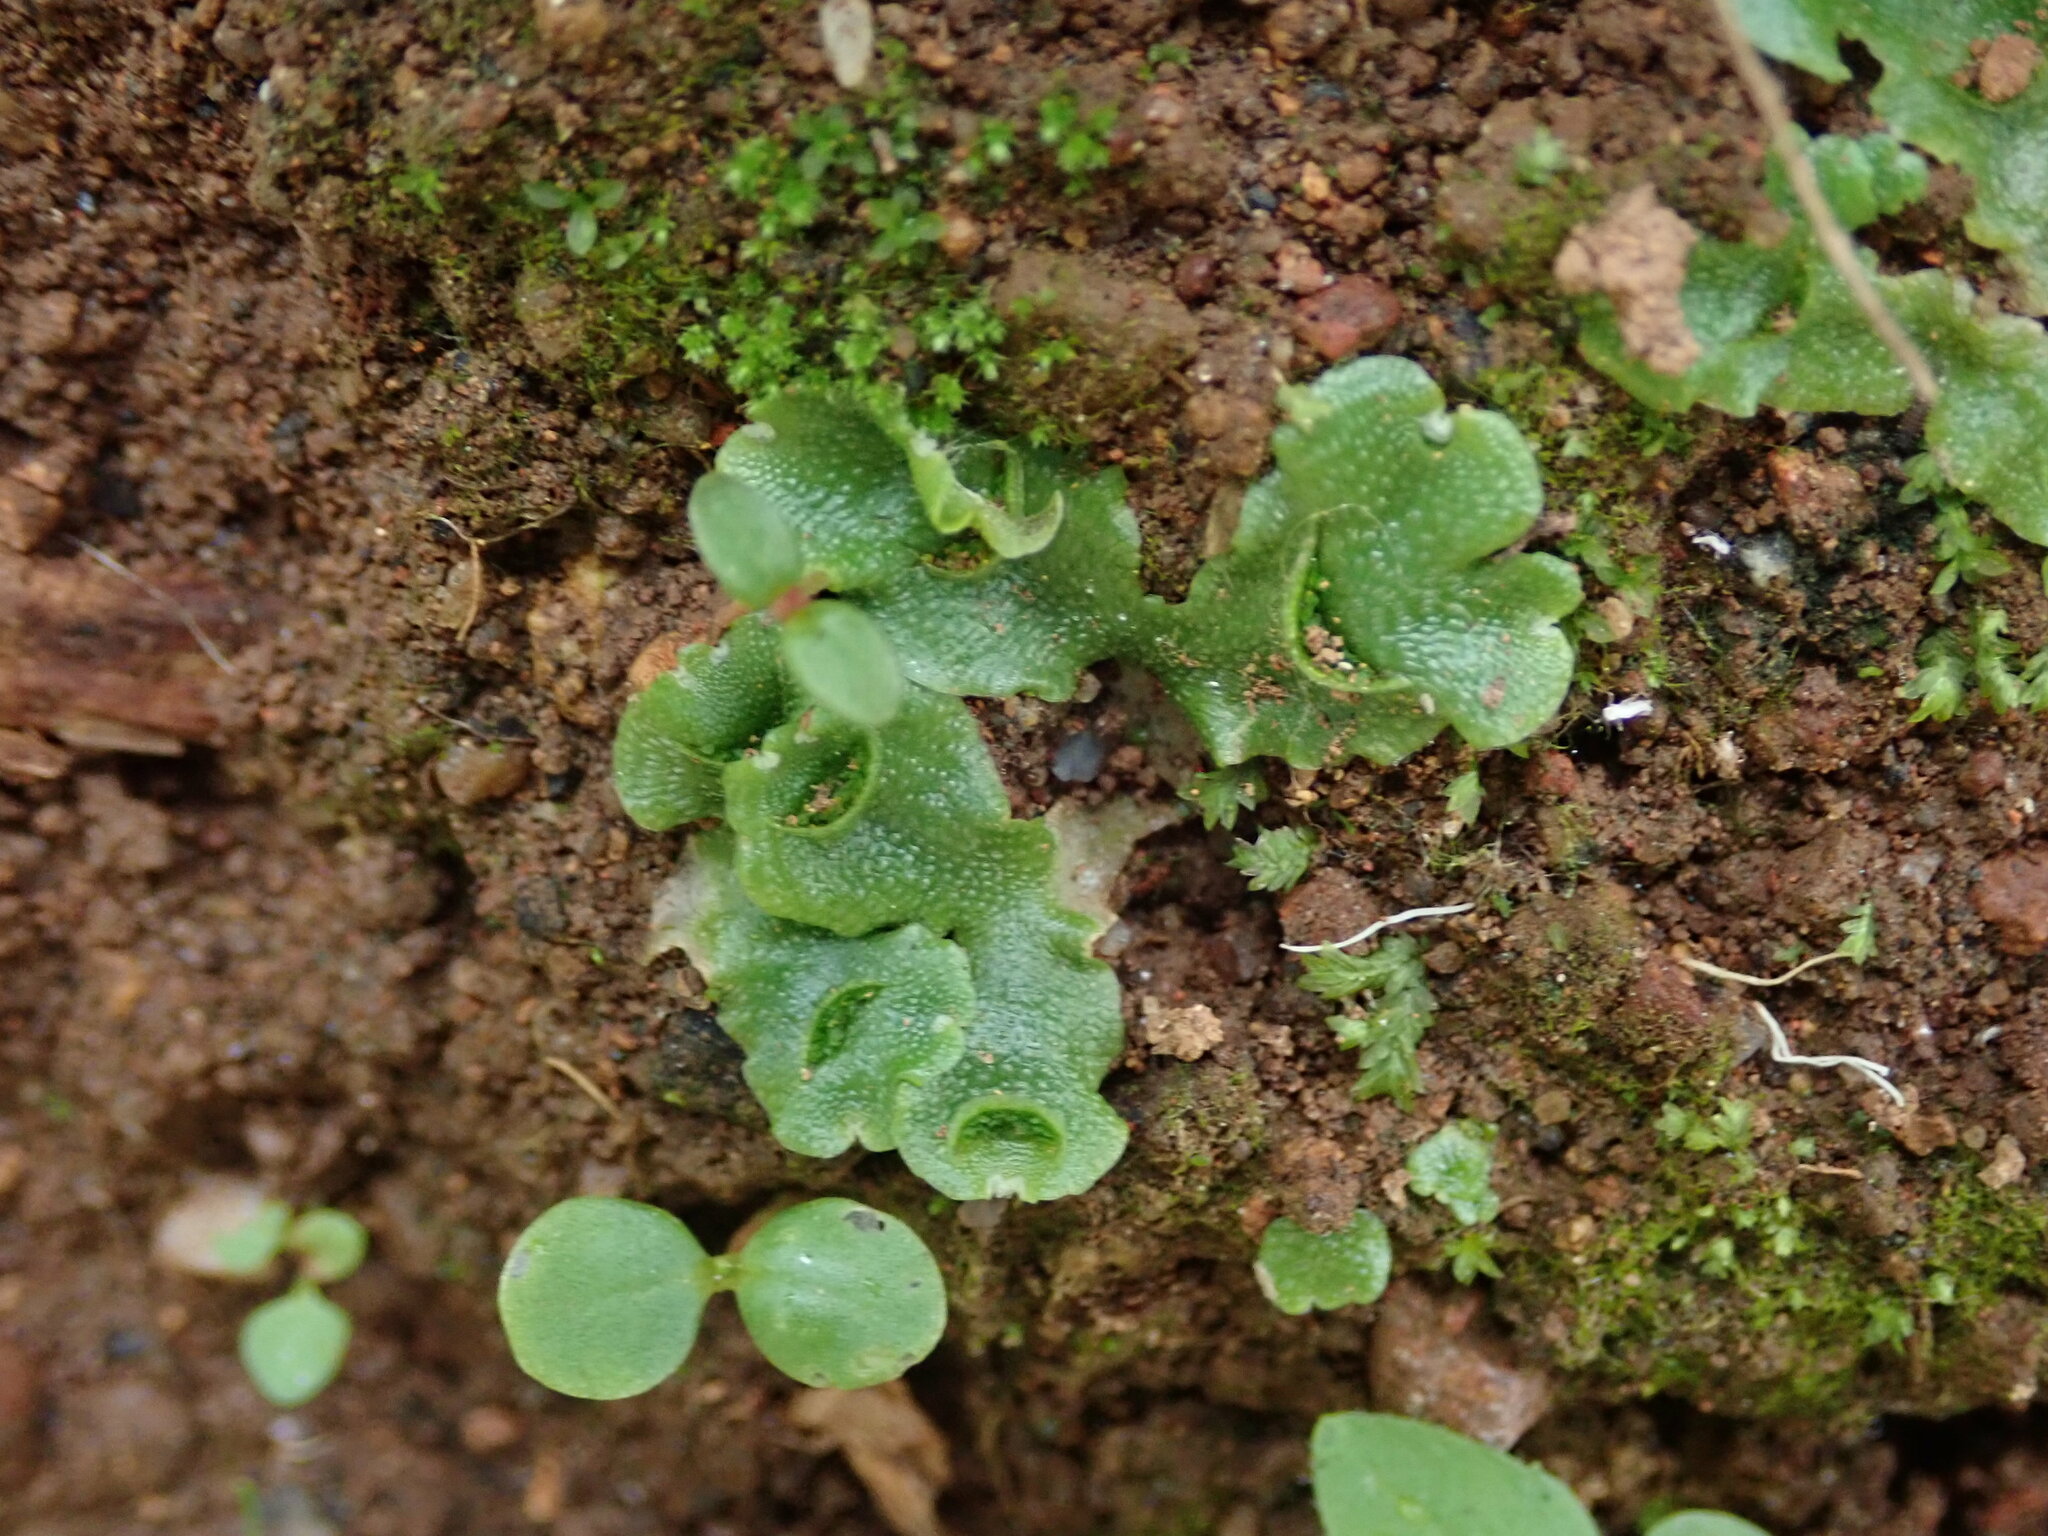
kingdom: Plantae
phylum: Marchantiophyta
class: Marchantiopsida
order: Lunulariales
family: Lunulariaceae
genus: Lunularia
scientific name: Lunularia cruciata
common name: Crescent-cup liverwort
